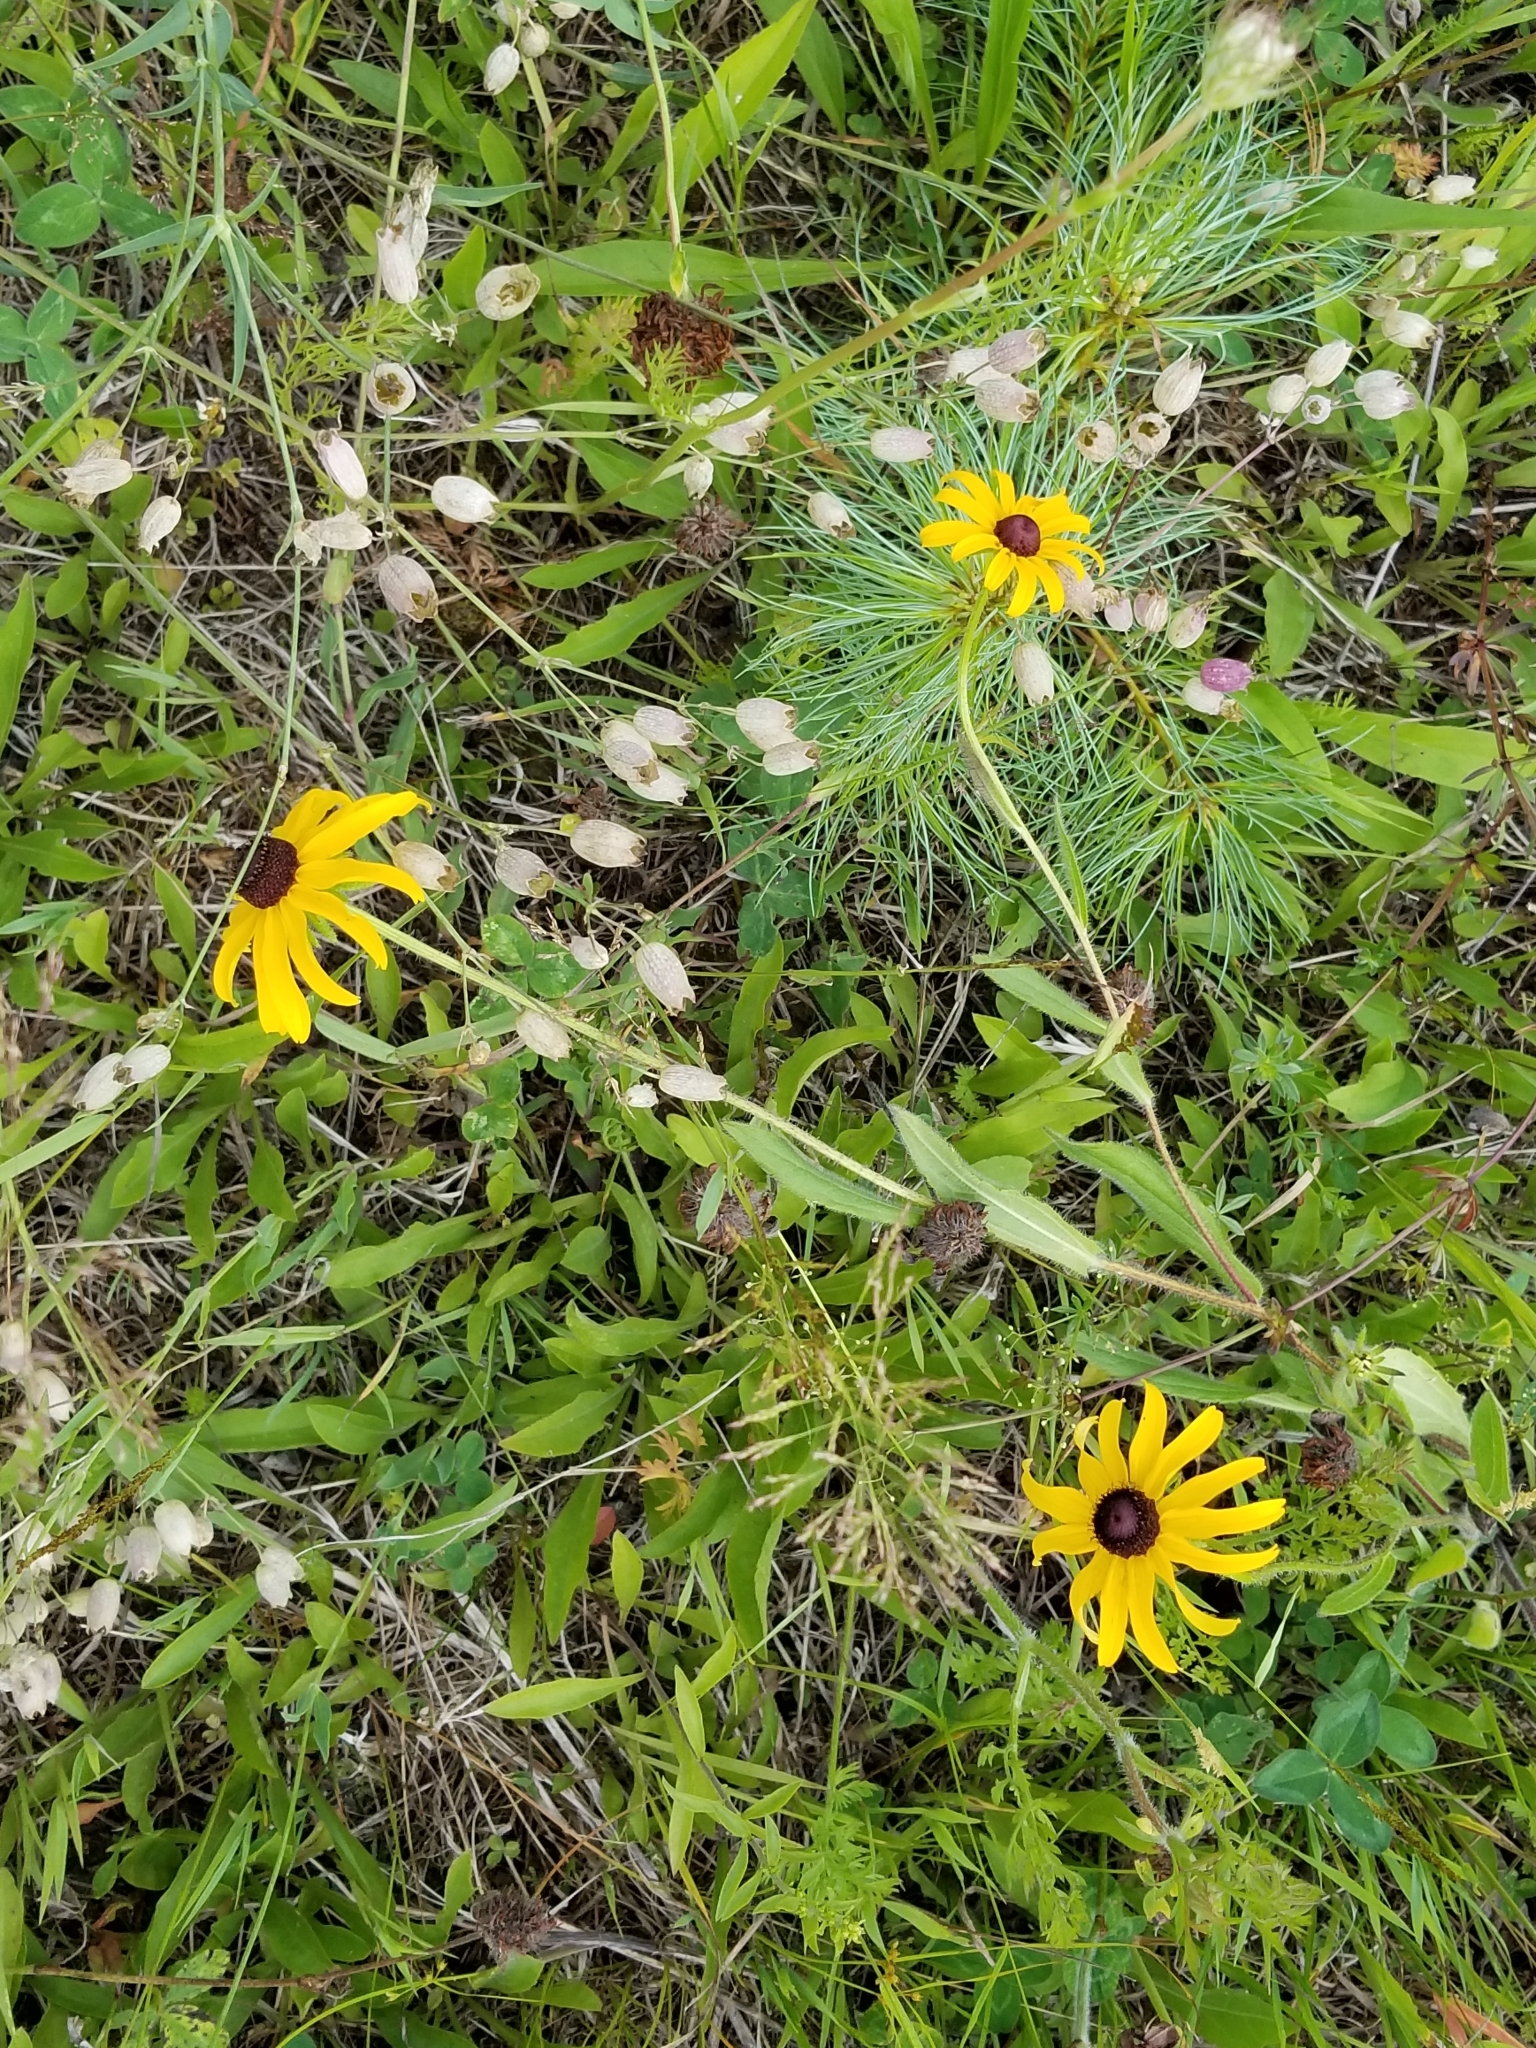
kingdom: Plantae
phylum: Tracheophyta
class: Magnoliopsida
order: Asterales
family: Asteraceae
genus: Rudbeckia
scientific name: Rudbeckia hirta
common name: Black-eyed-susan
